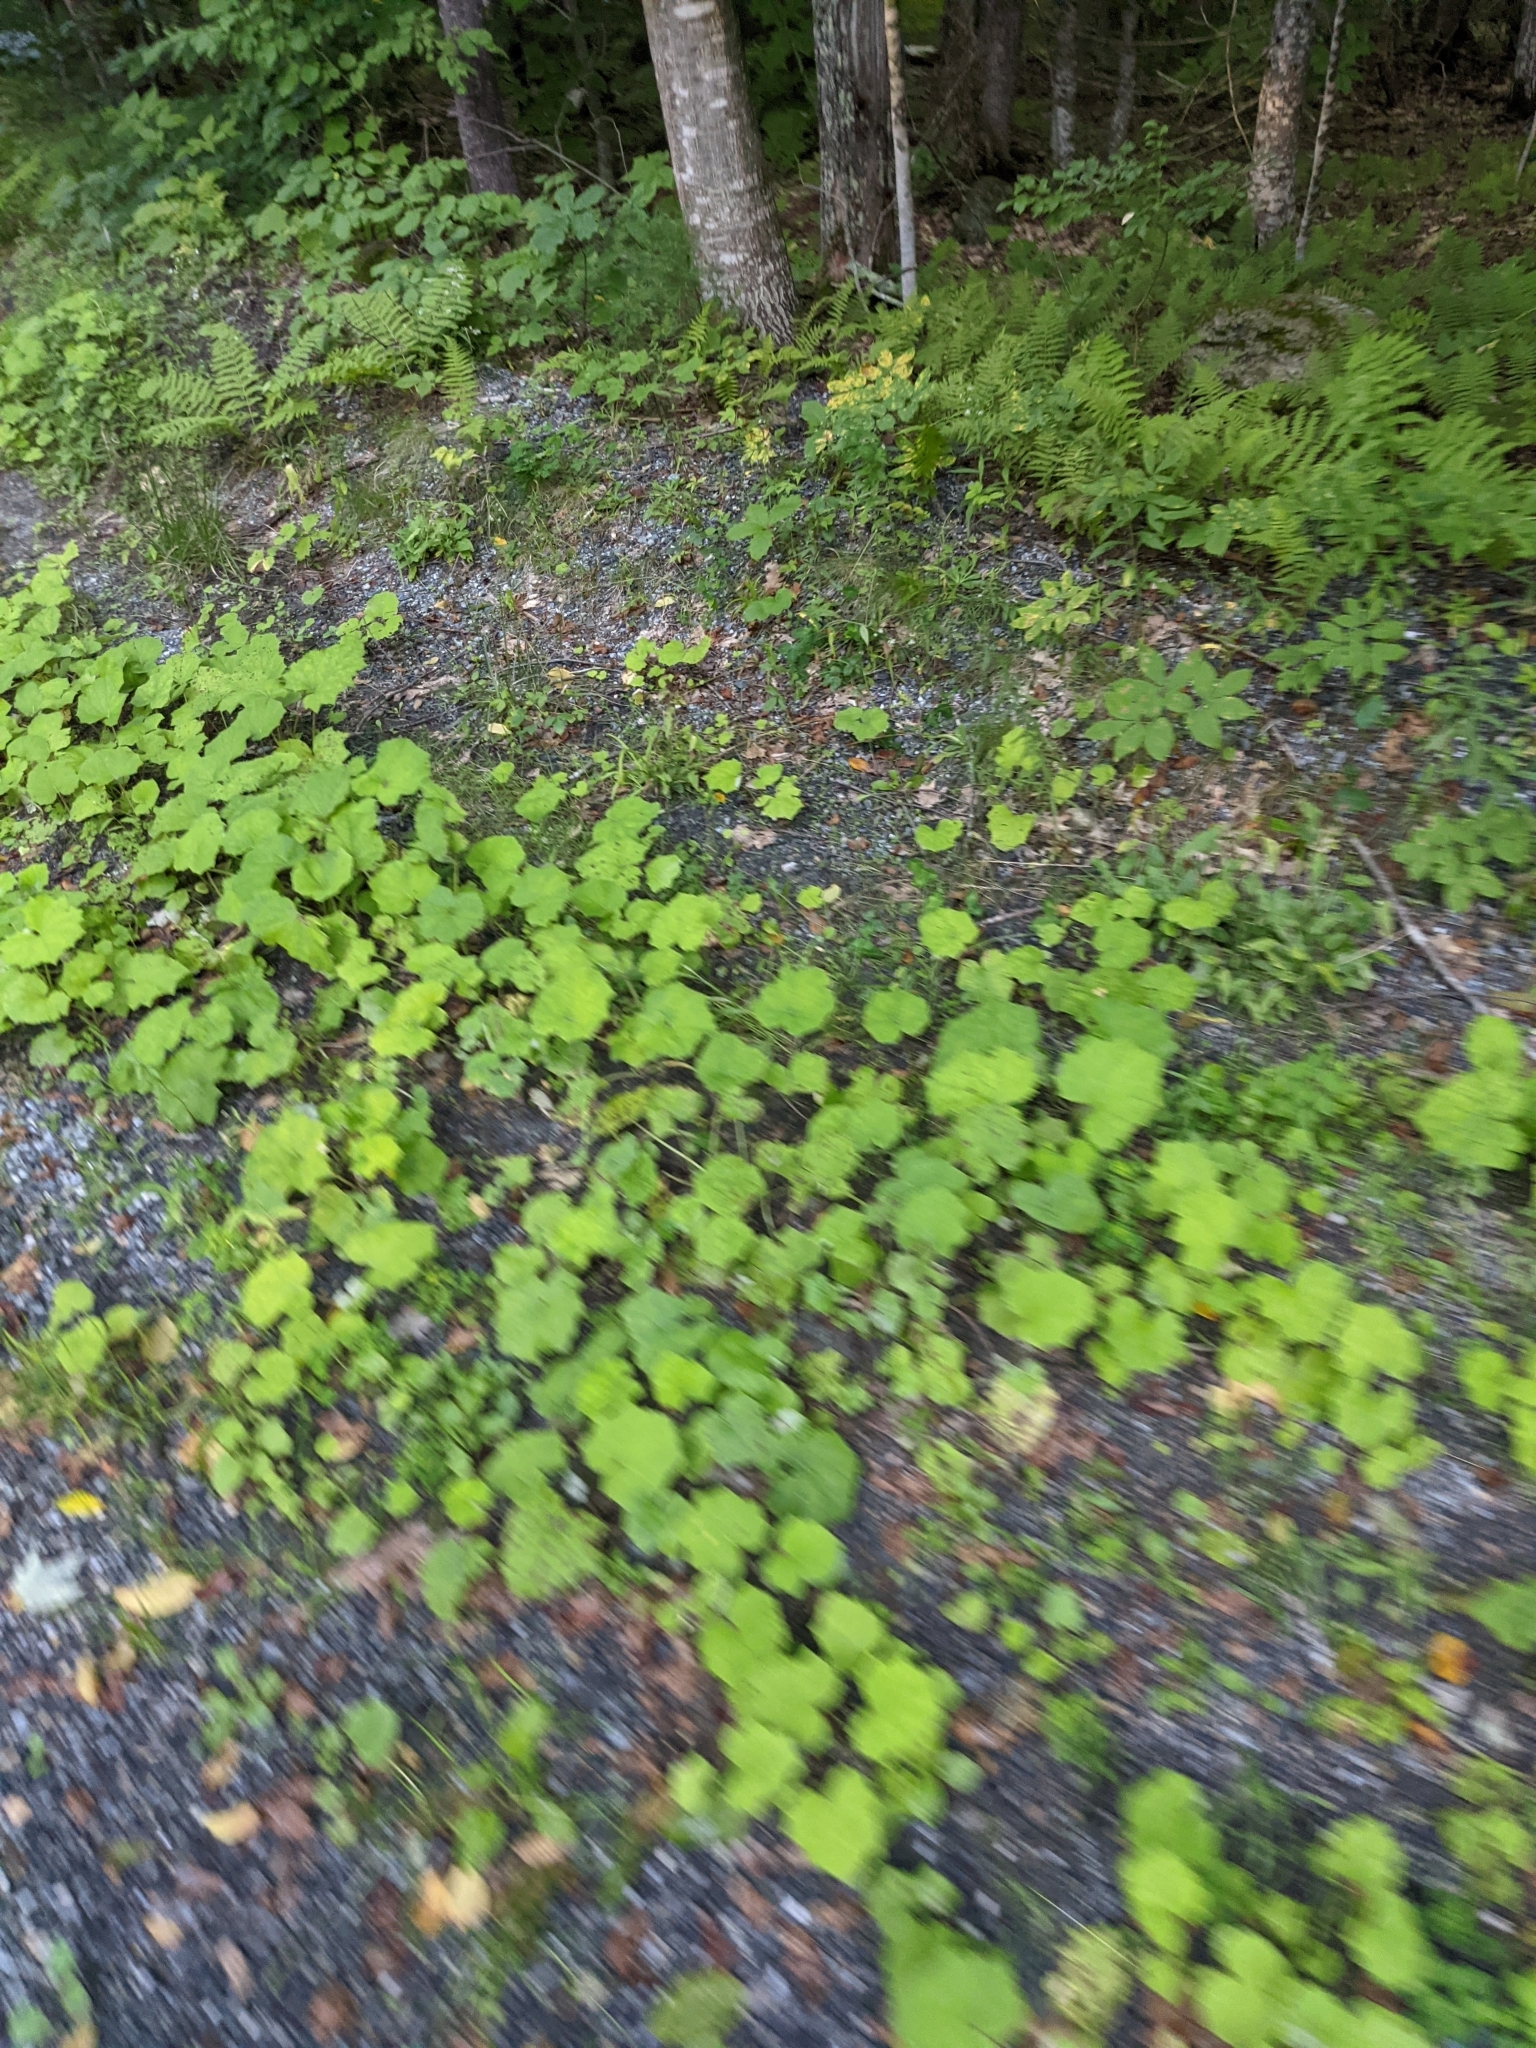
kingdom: Plantae
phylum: Tracheophyta
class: Magnoliopsida
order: Asterales
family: Asteraceae
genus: Tussilago
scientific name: Tussilago farfara
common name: Coltsfoot
